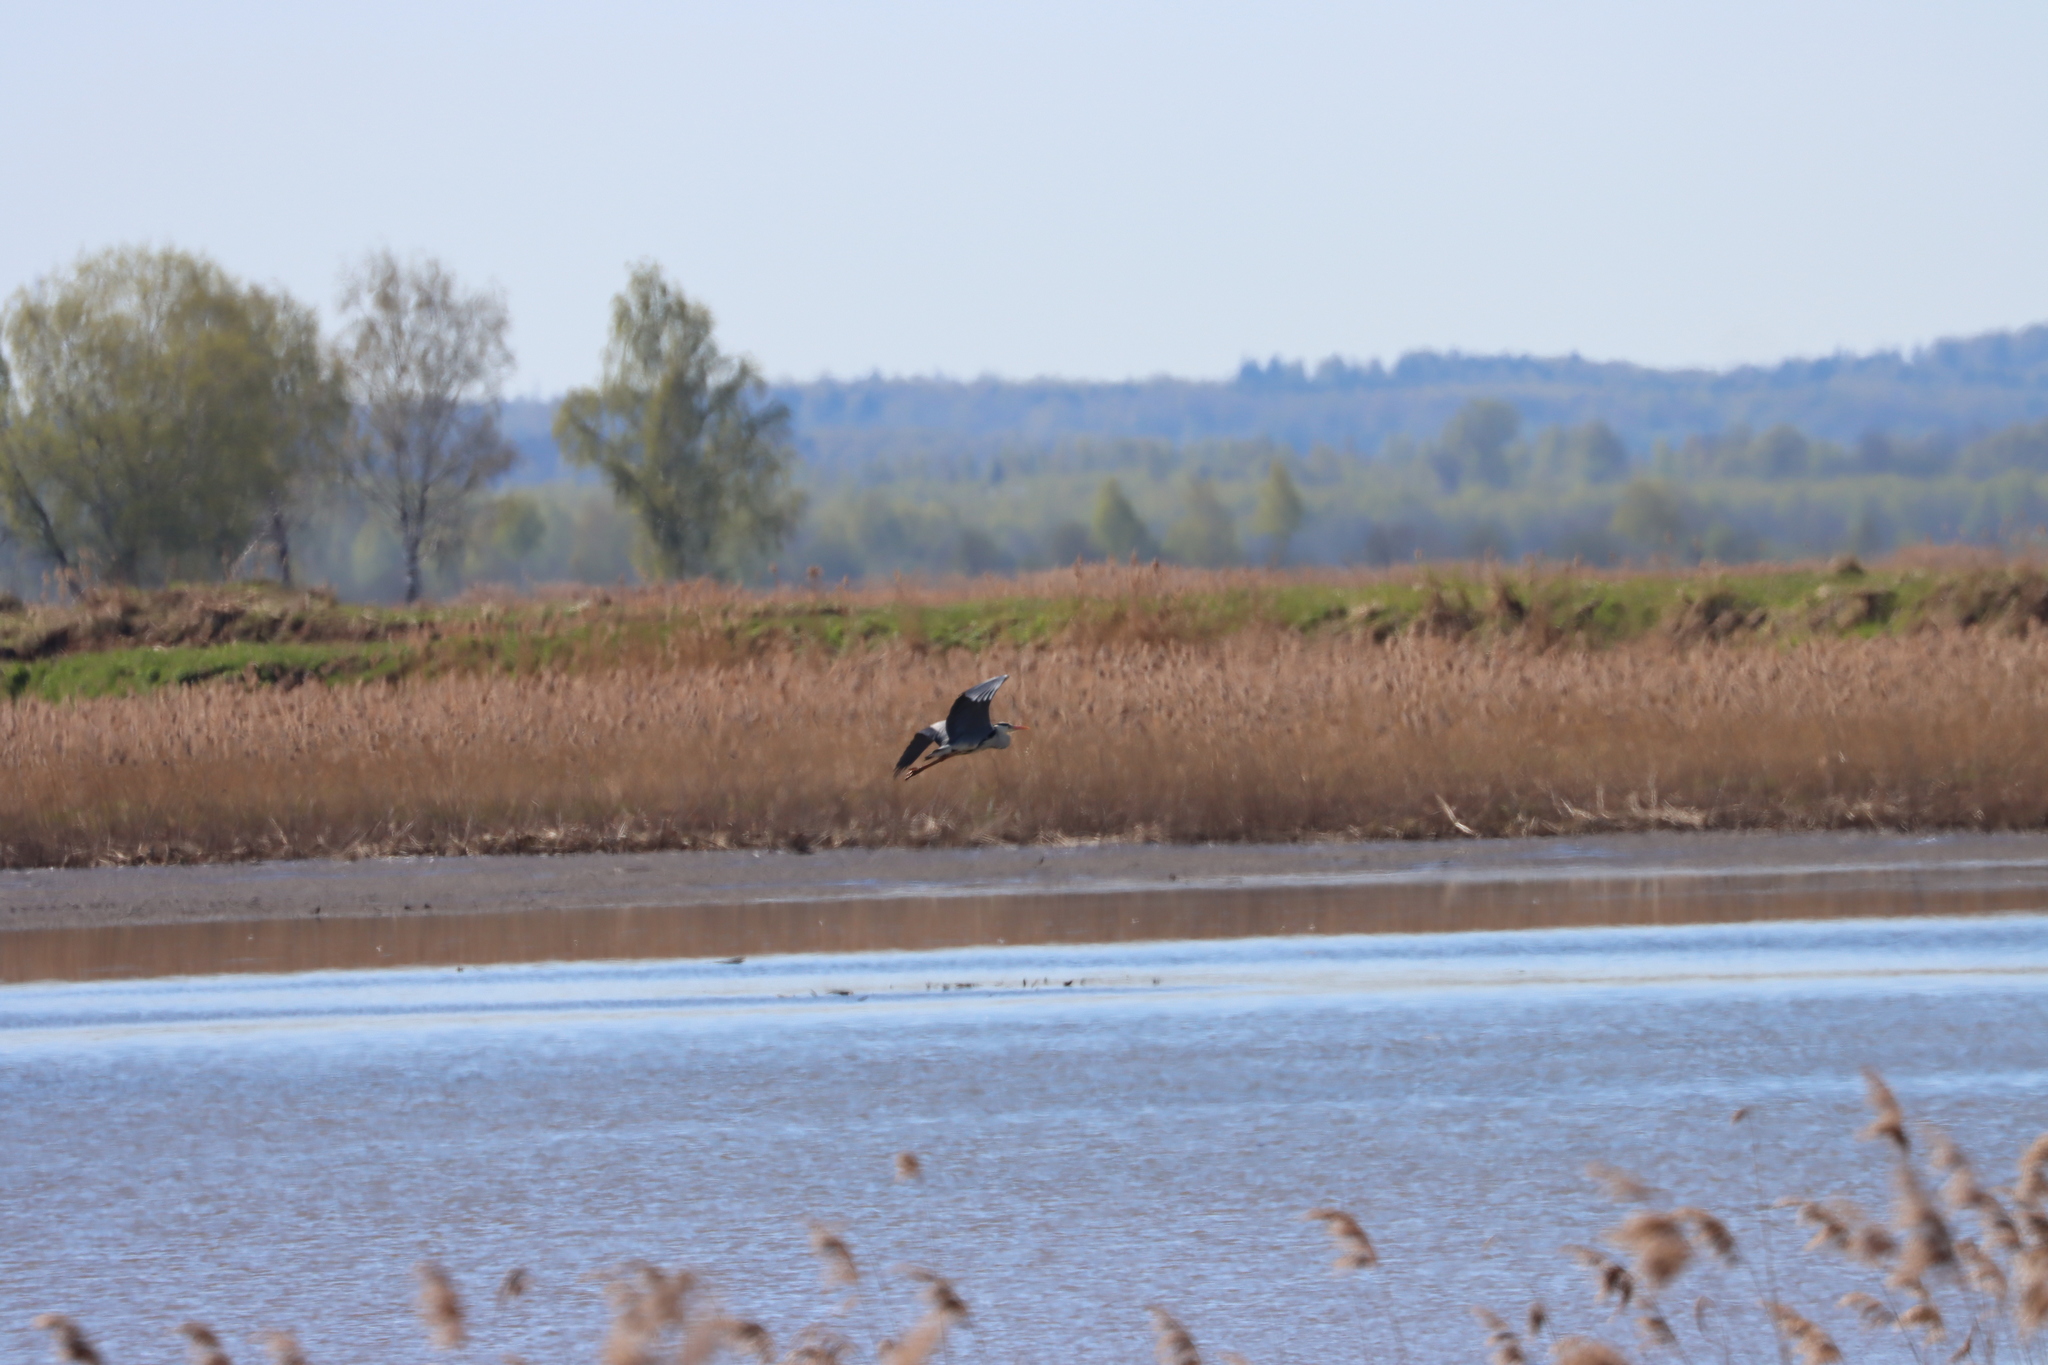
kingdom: Animalia
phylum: Chordata
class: Aves
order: Pelecaniformes
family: Ardeidae
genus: Ardea
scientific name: Ardea cinerea
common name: Grey heron
